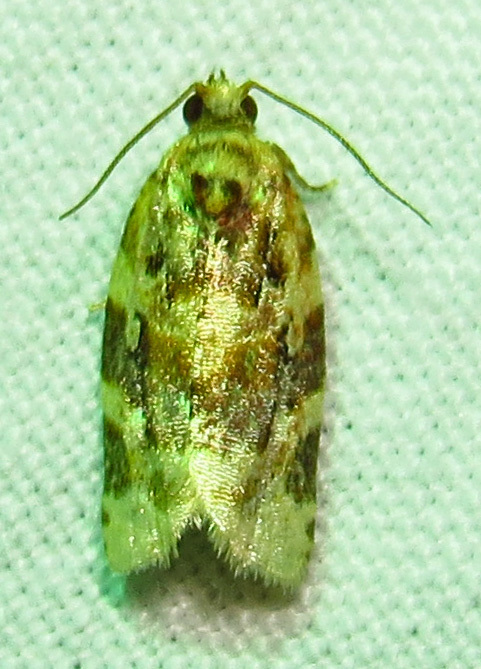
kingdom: Animalia
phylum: Arthropoda
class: Insecta
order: Lepidoptera
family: Tortricidae
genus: Argyrotaenia
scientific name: Argyrotaenia velutinana
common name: Red-banded leafroller moth
